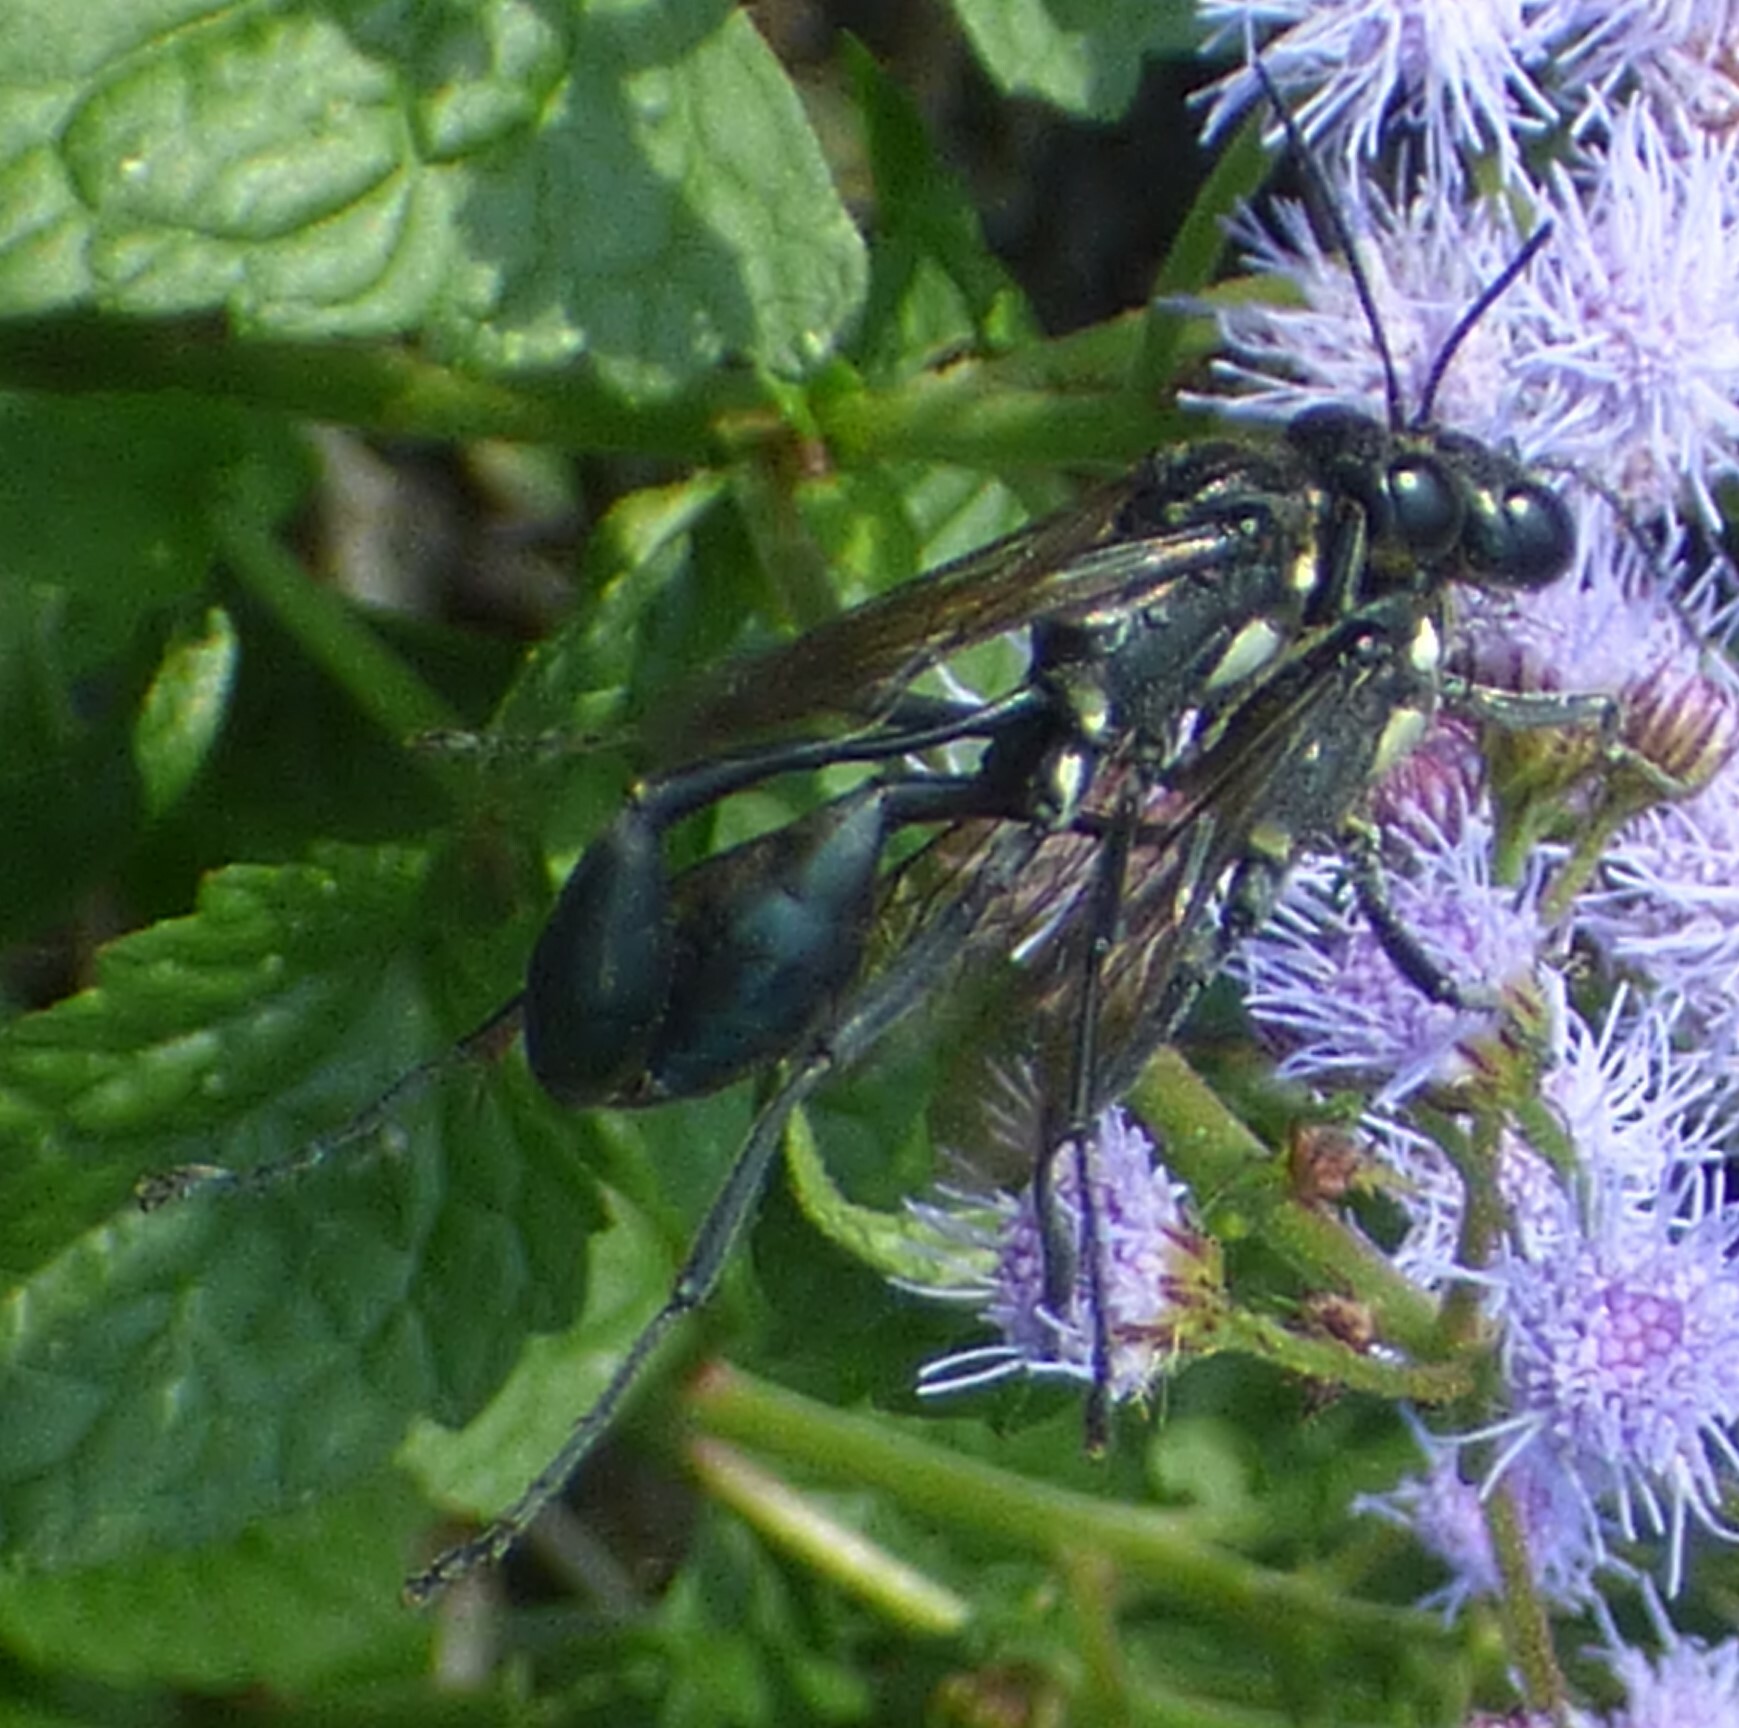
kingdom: Animalia
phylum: Arthropoda
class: Insecta
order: Hymenoptera
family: Sphecidae
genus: Eremnophila
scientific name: Eremnophila aureonotata
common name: Gold-marked thread-waisted wasp
